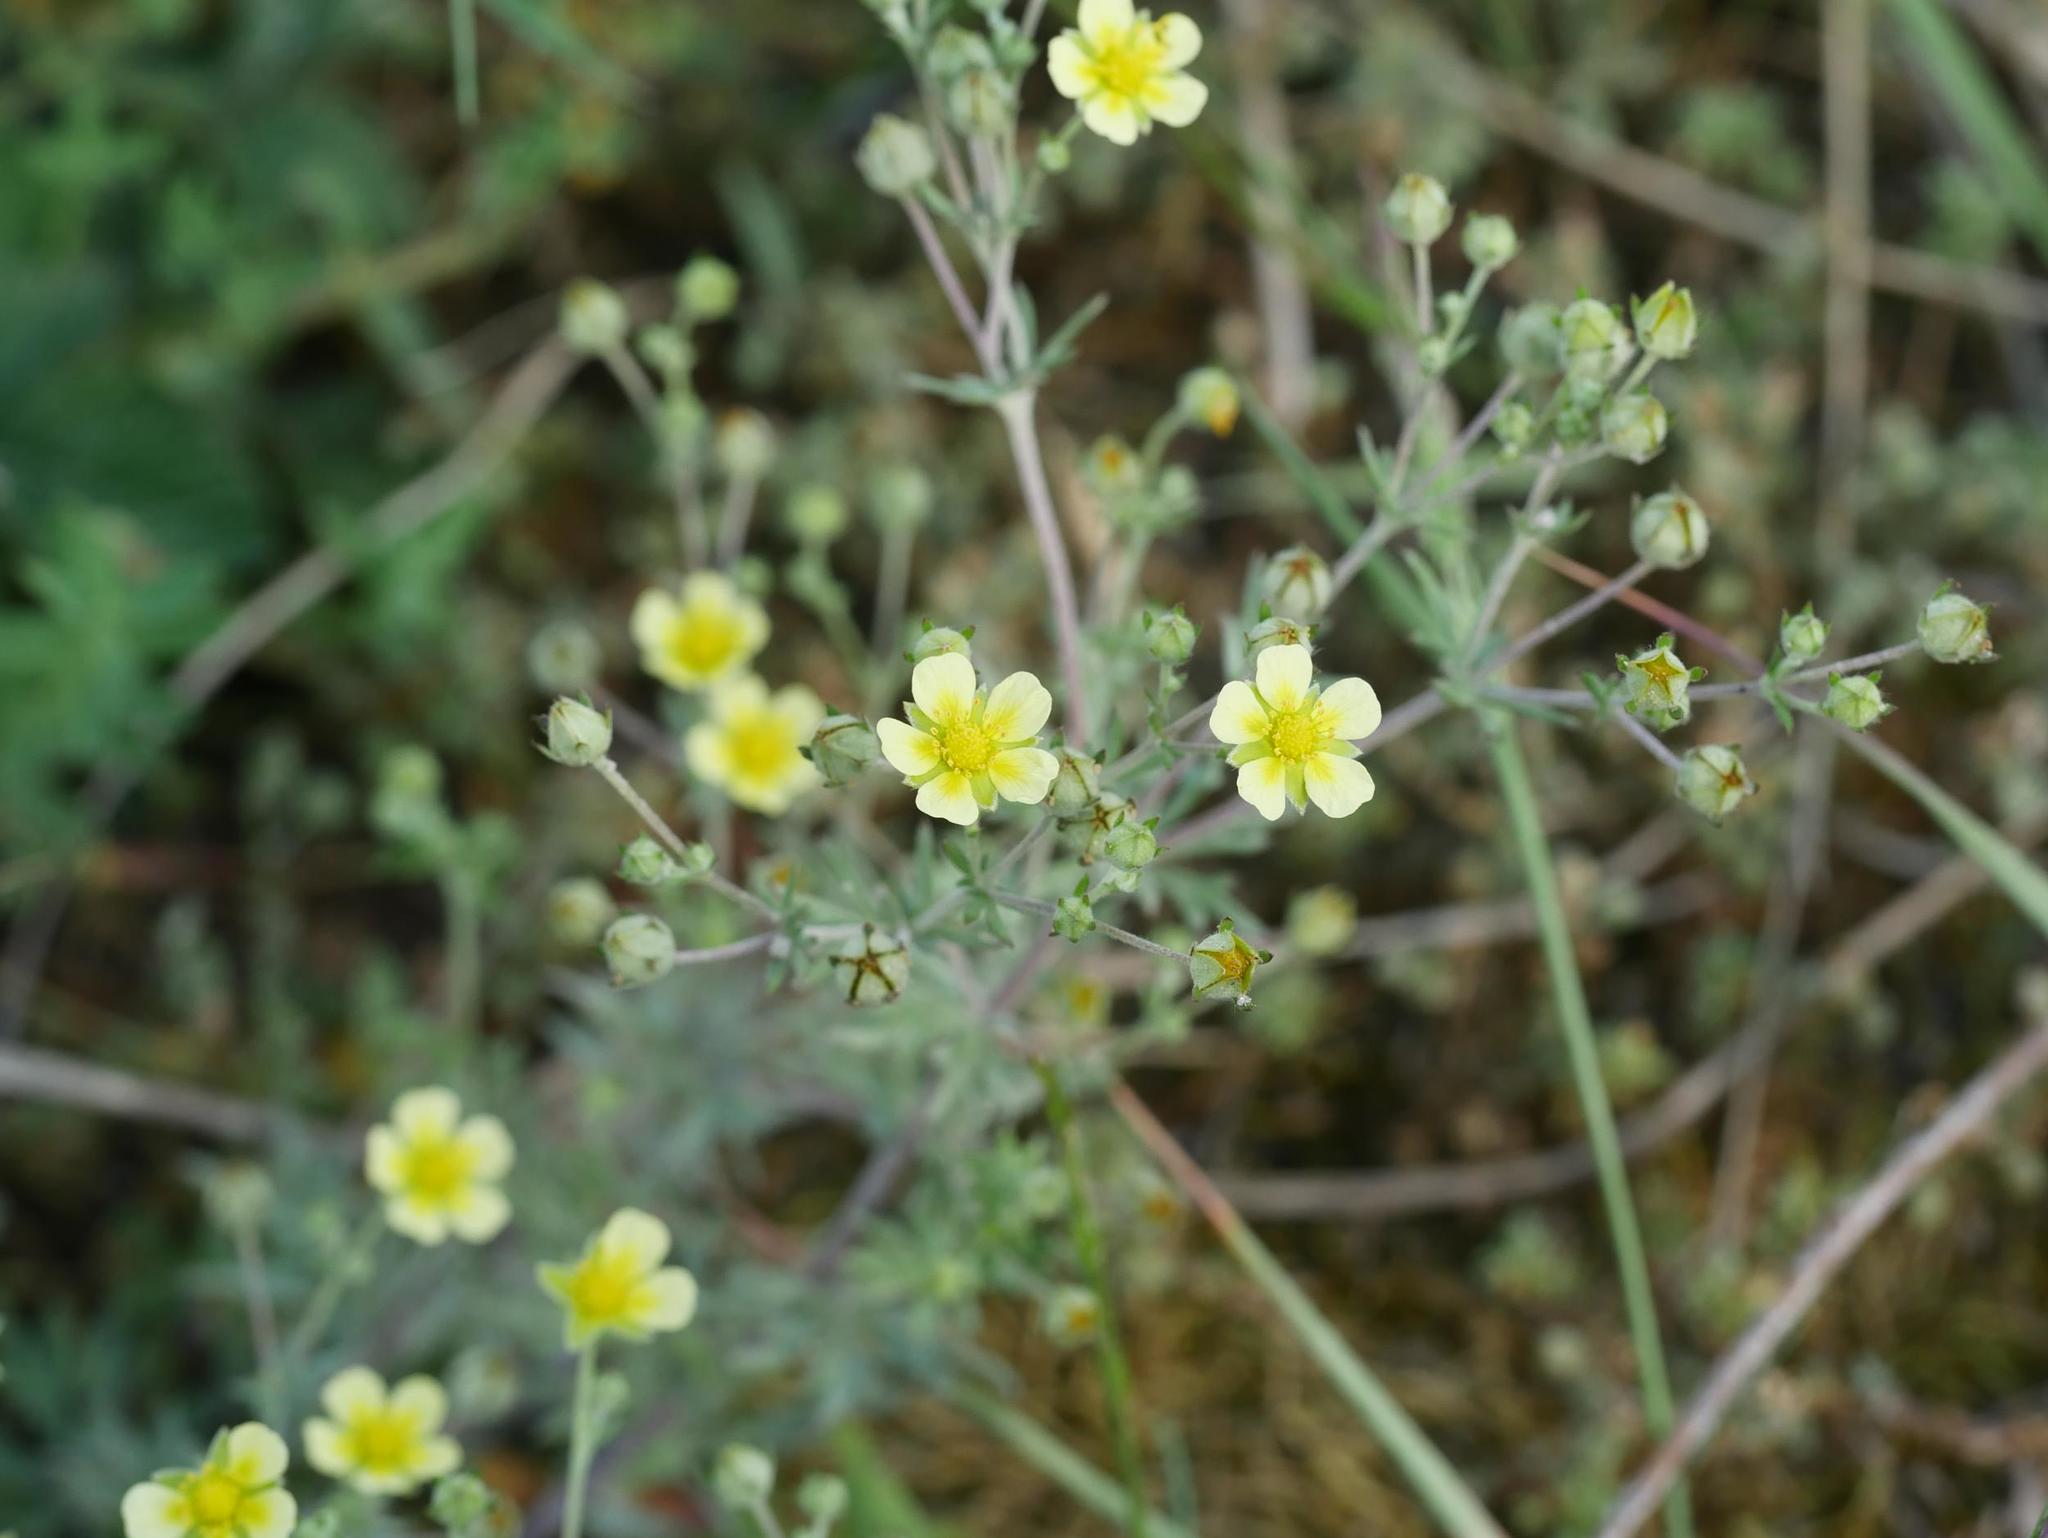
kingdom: Plantae
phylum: Tracheophyta
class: Magnoliopsida
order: Rosales
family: Rosaceae
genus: Potentilla
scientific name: Potentilla argentea
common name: Hoary cinquefoil
